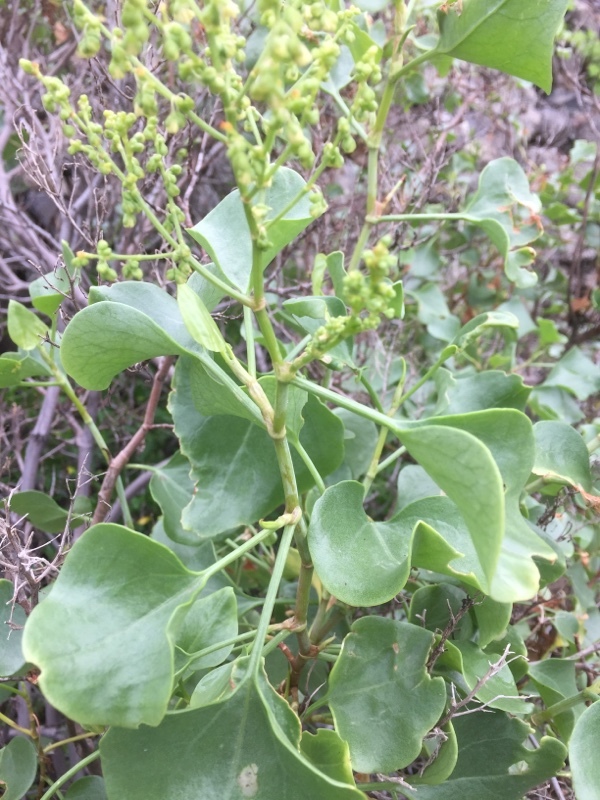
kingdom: Plantae
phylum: Tracheophyta
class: Magnoliopsida
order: Caryophyllales
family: Polygonaceae
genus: Rumex
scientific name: Rumex lunaria
